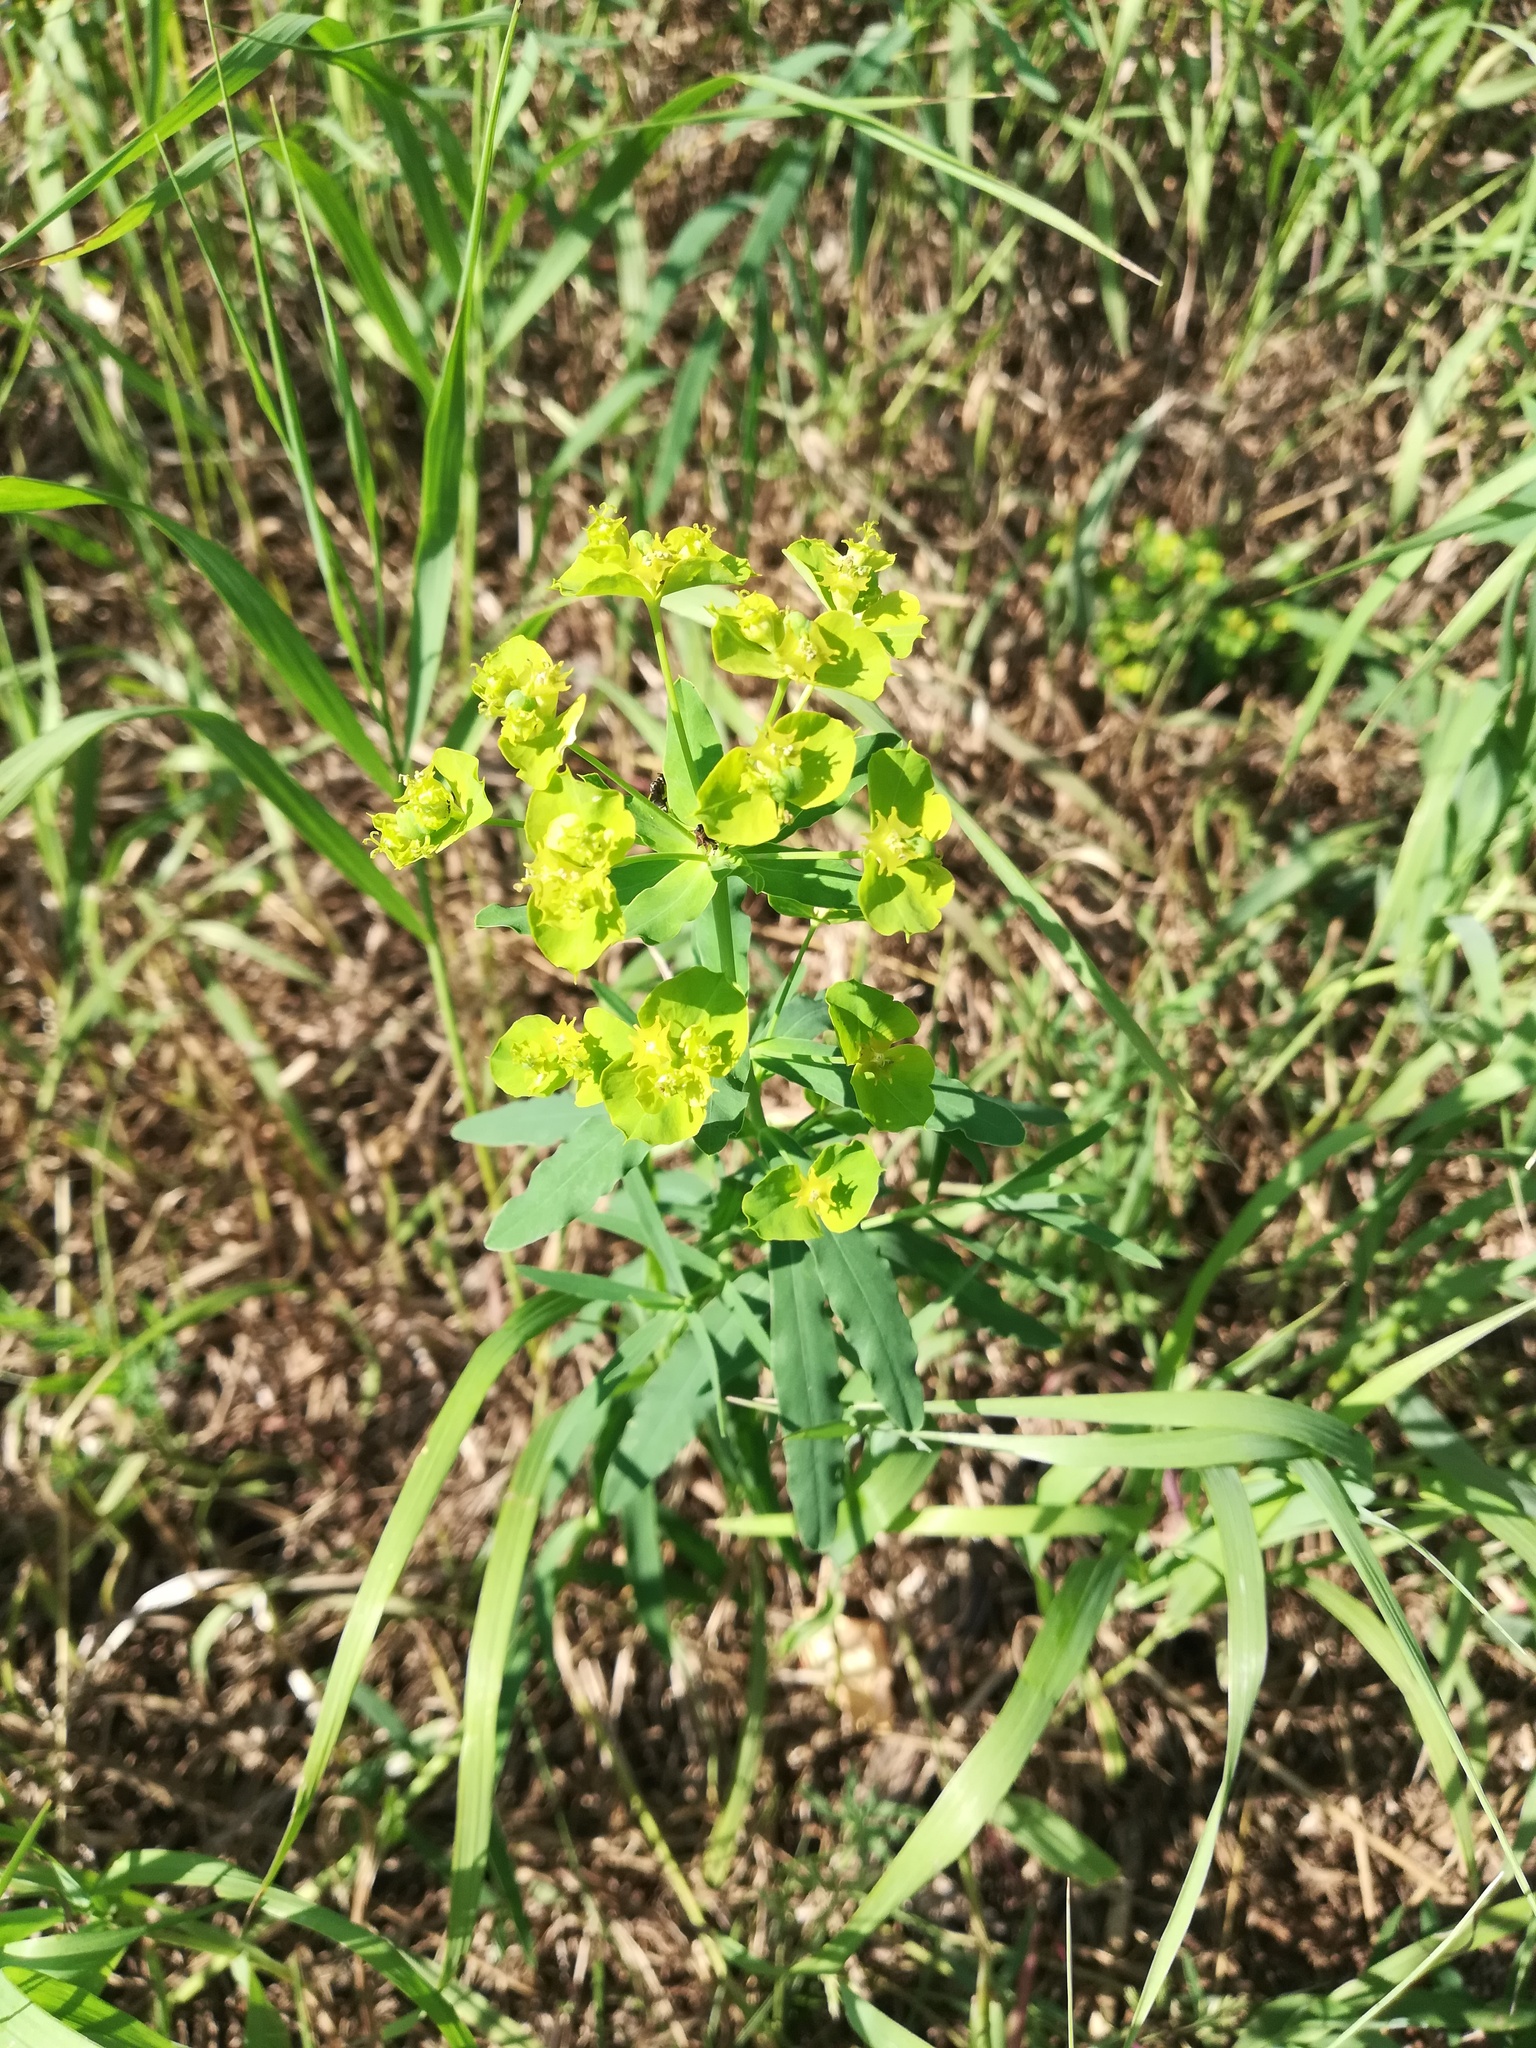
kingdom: Plantae
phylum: Tracheophyta
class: Magnoliopsida
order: Malpighiales
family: Euphorbiaceae
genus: Euphorbia
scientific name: Euphorbia virgata
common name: Leafy spurge
